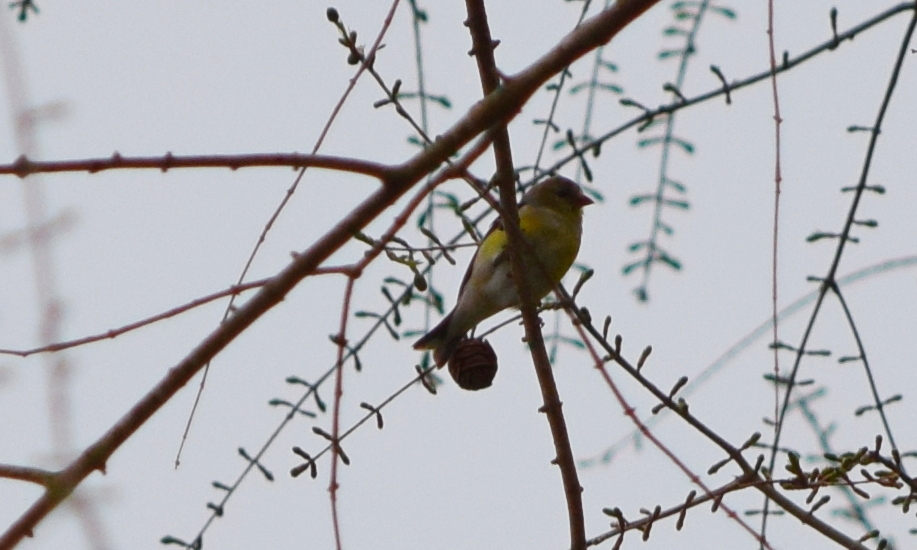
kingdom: Animalia
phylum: Chordata
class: Aves
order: Passeriformes
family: Fringillidae
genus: Spinus
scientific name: Spinus tristis
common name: American goldfinch
